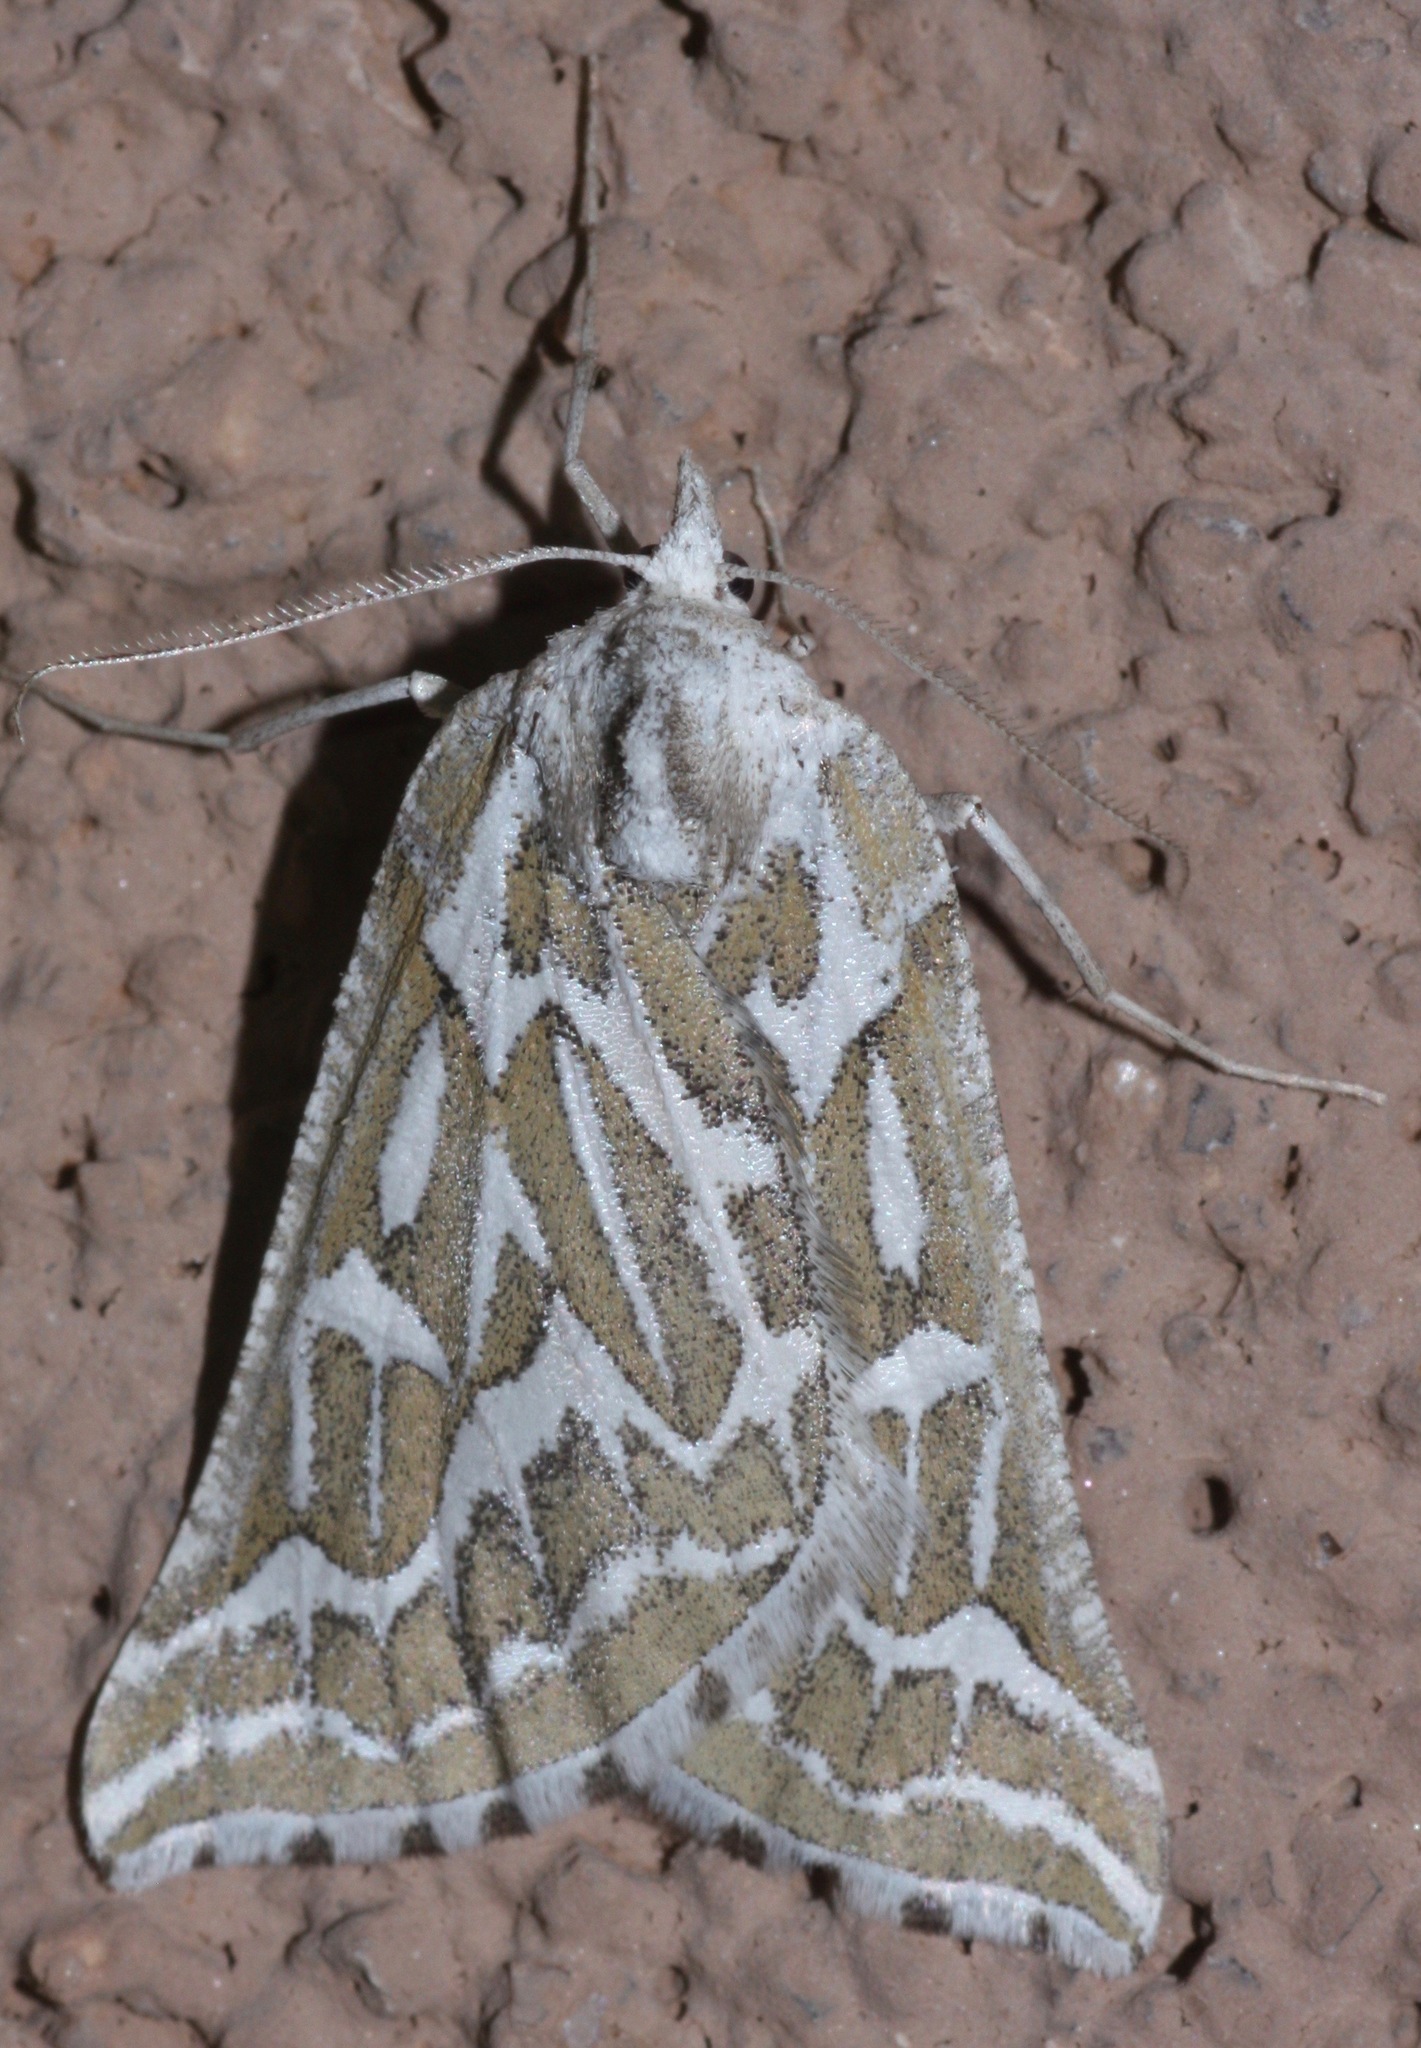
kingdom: Animalia
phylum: Arthropoda
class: Insecta
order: Lepidoptera
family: Geometridae
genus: Plataea
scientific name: Plataea trilinearia
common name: Sagebrush girdle moth
